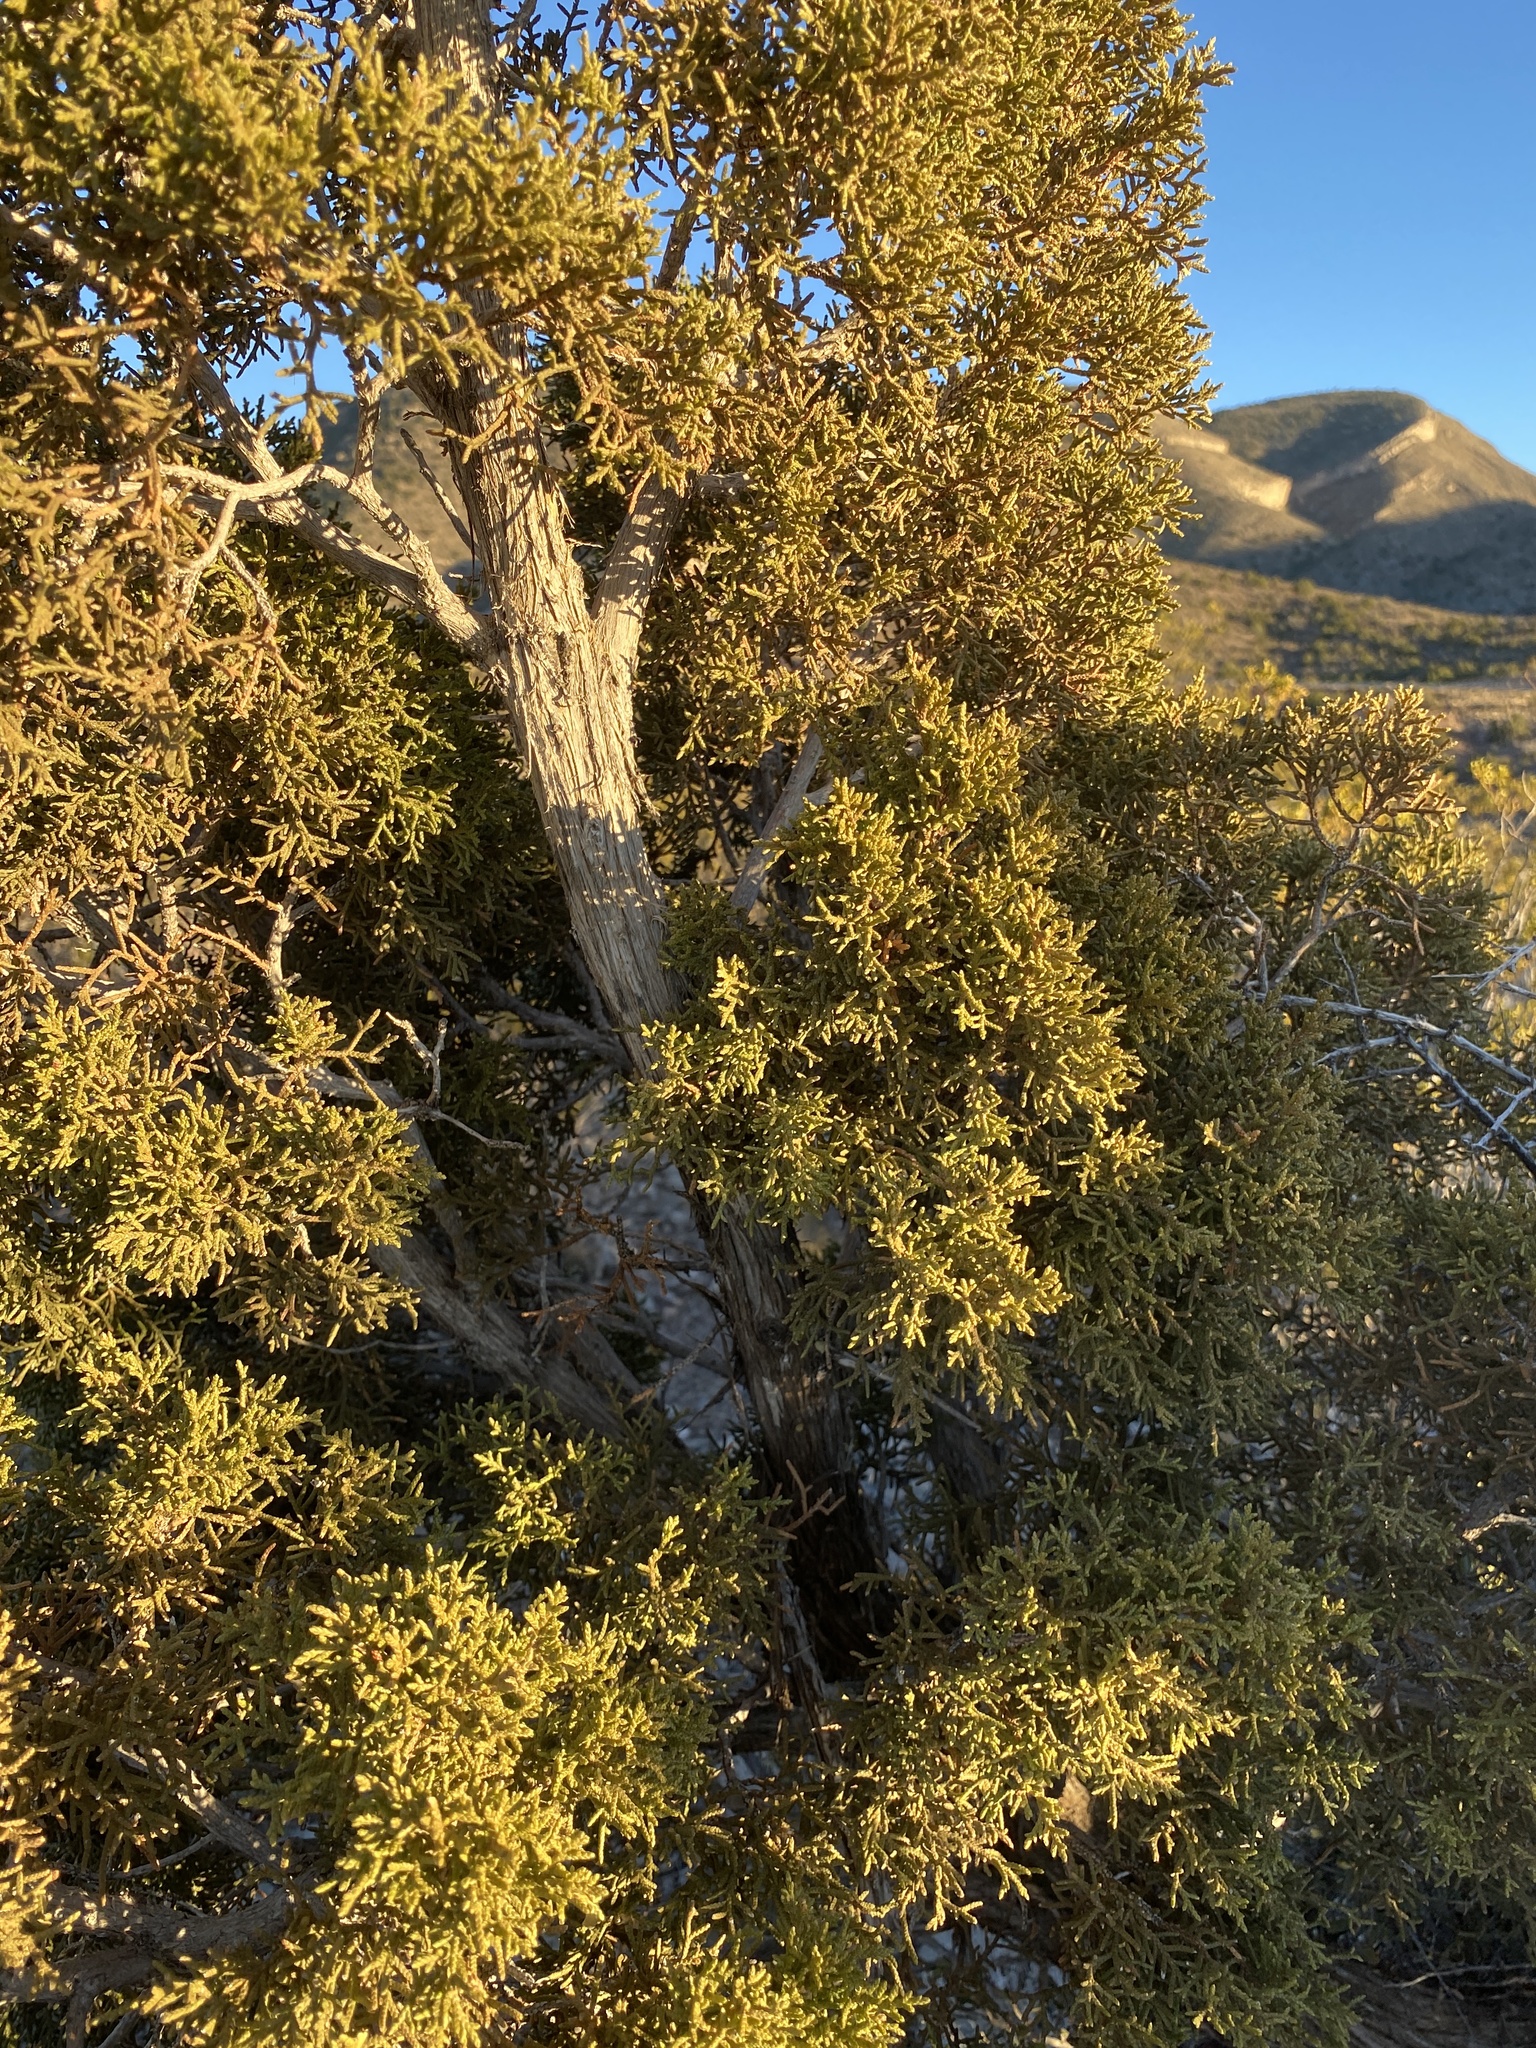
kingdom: Plantae
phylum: Tracheophyta
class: Pinopsida
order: Pinales
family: Cupressaceae
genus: Juniperus
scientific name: Juniperus monosperma
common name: One-seed juniper
